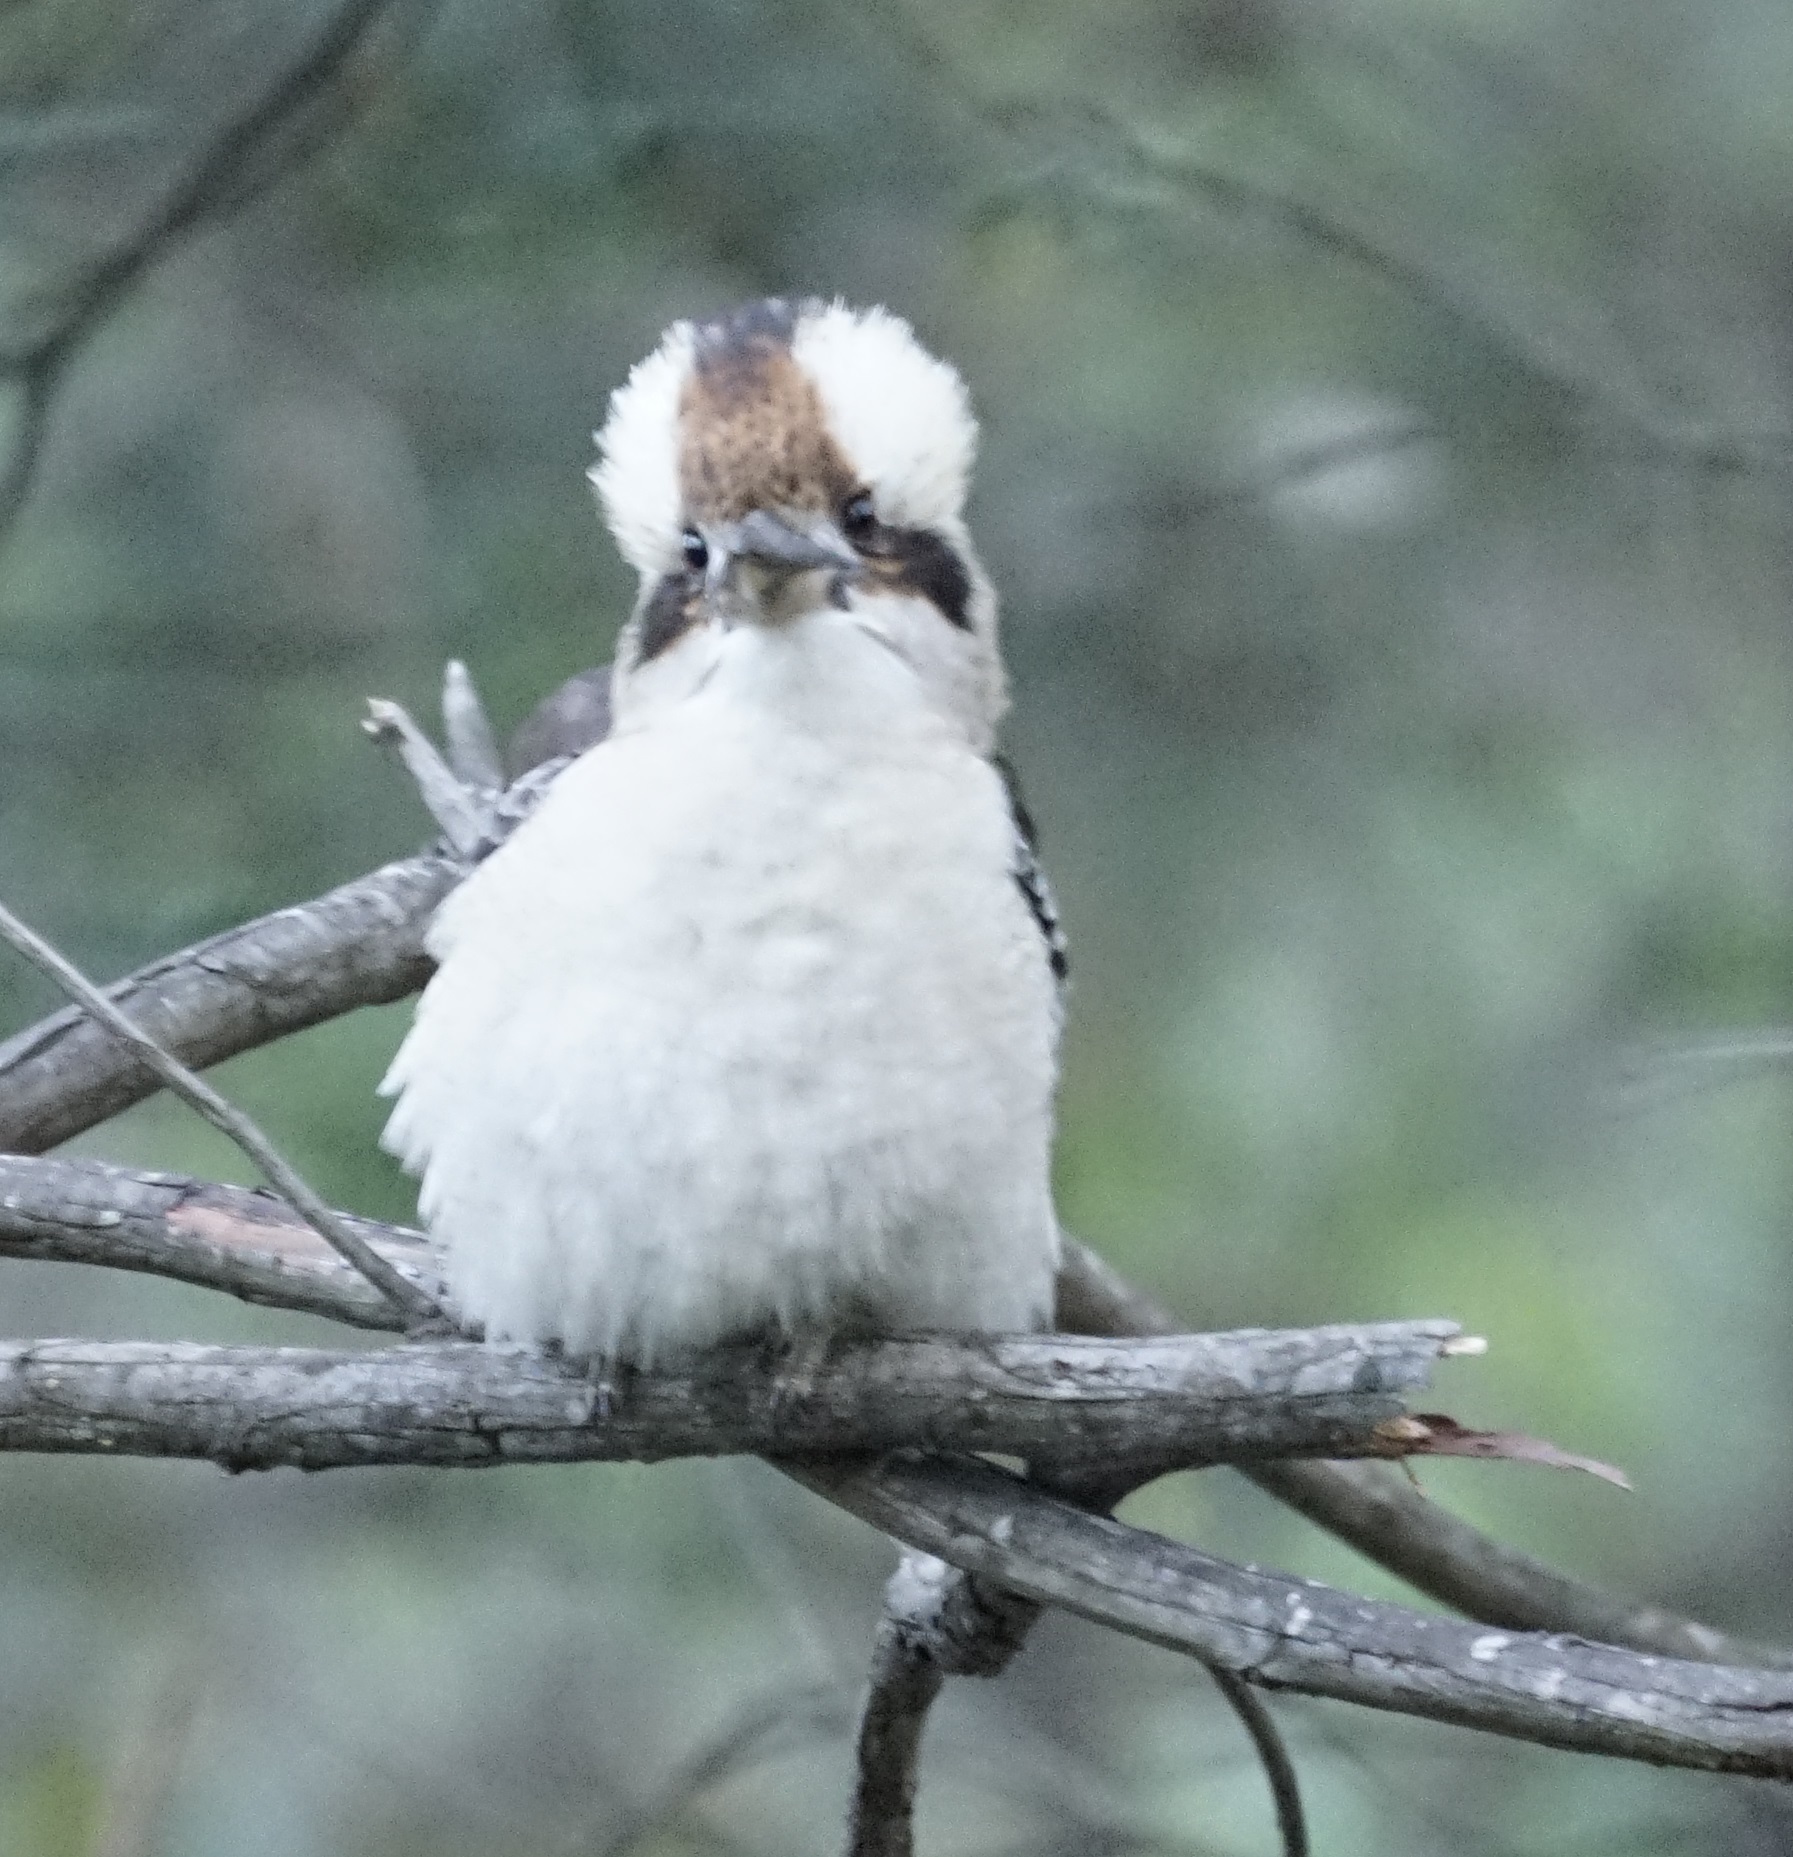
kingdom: Animalia
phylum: Chordata
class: Aves
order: Coraciiformes
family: Alcedinidae
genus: Dacelo
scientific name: Dacelo novaeguineae
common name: Laughing kookaburra
